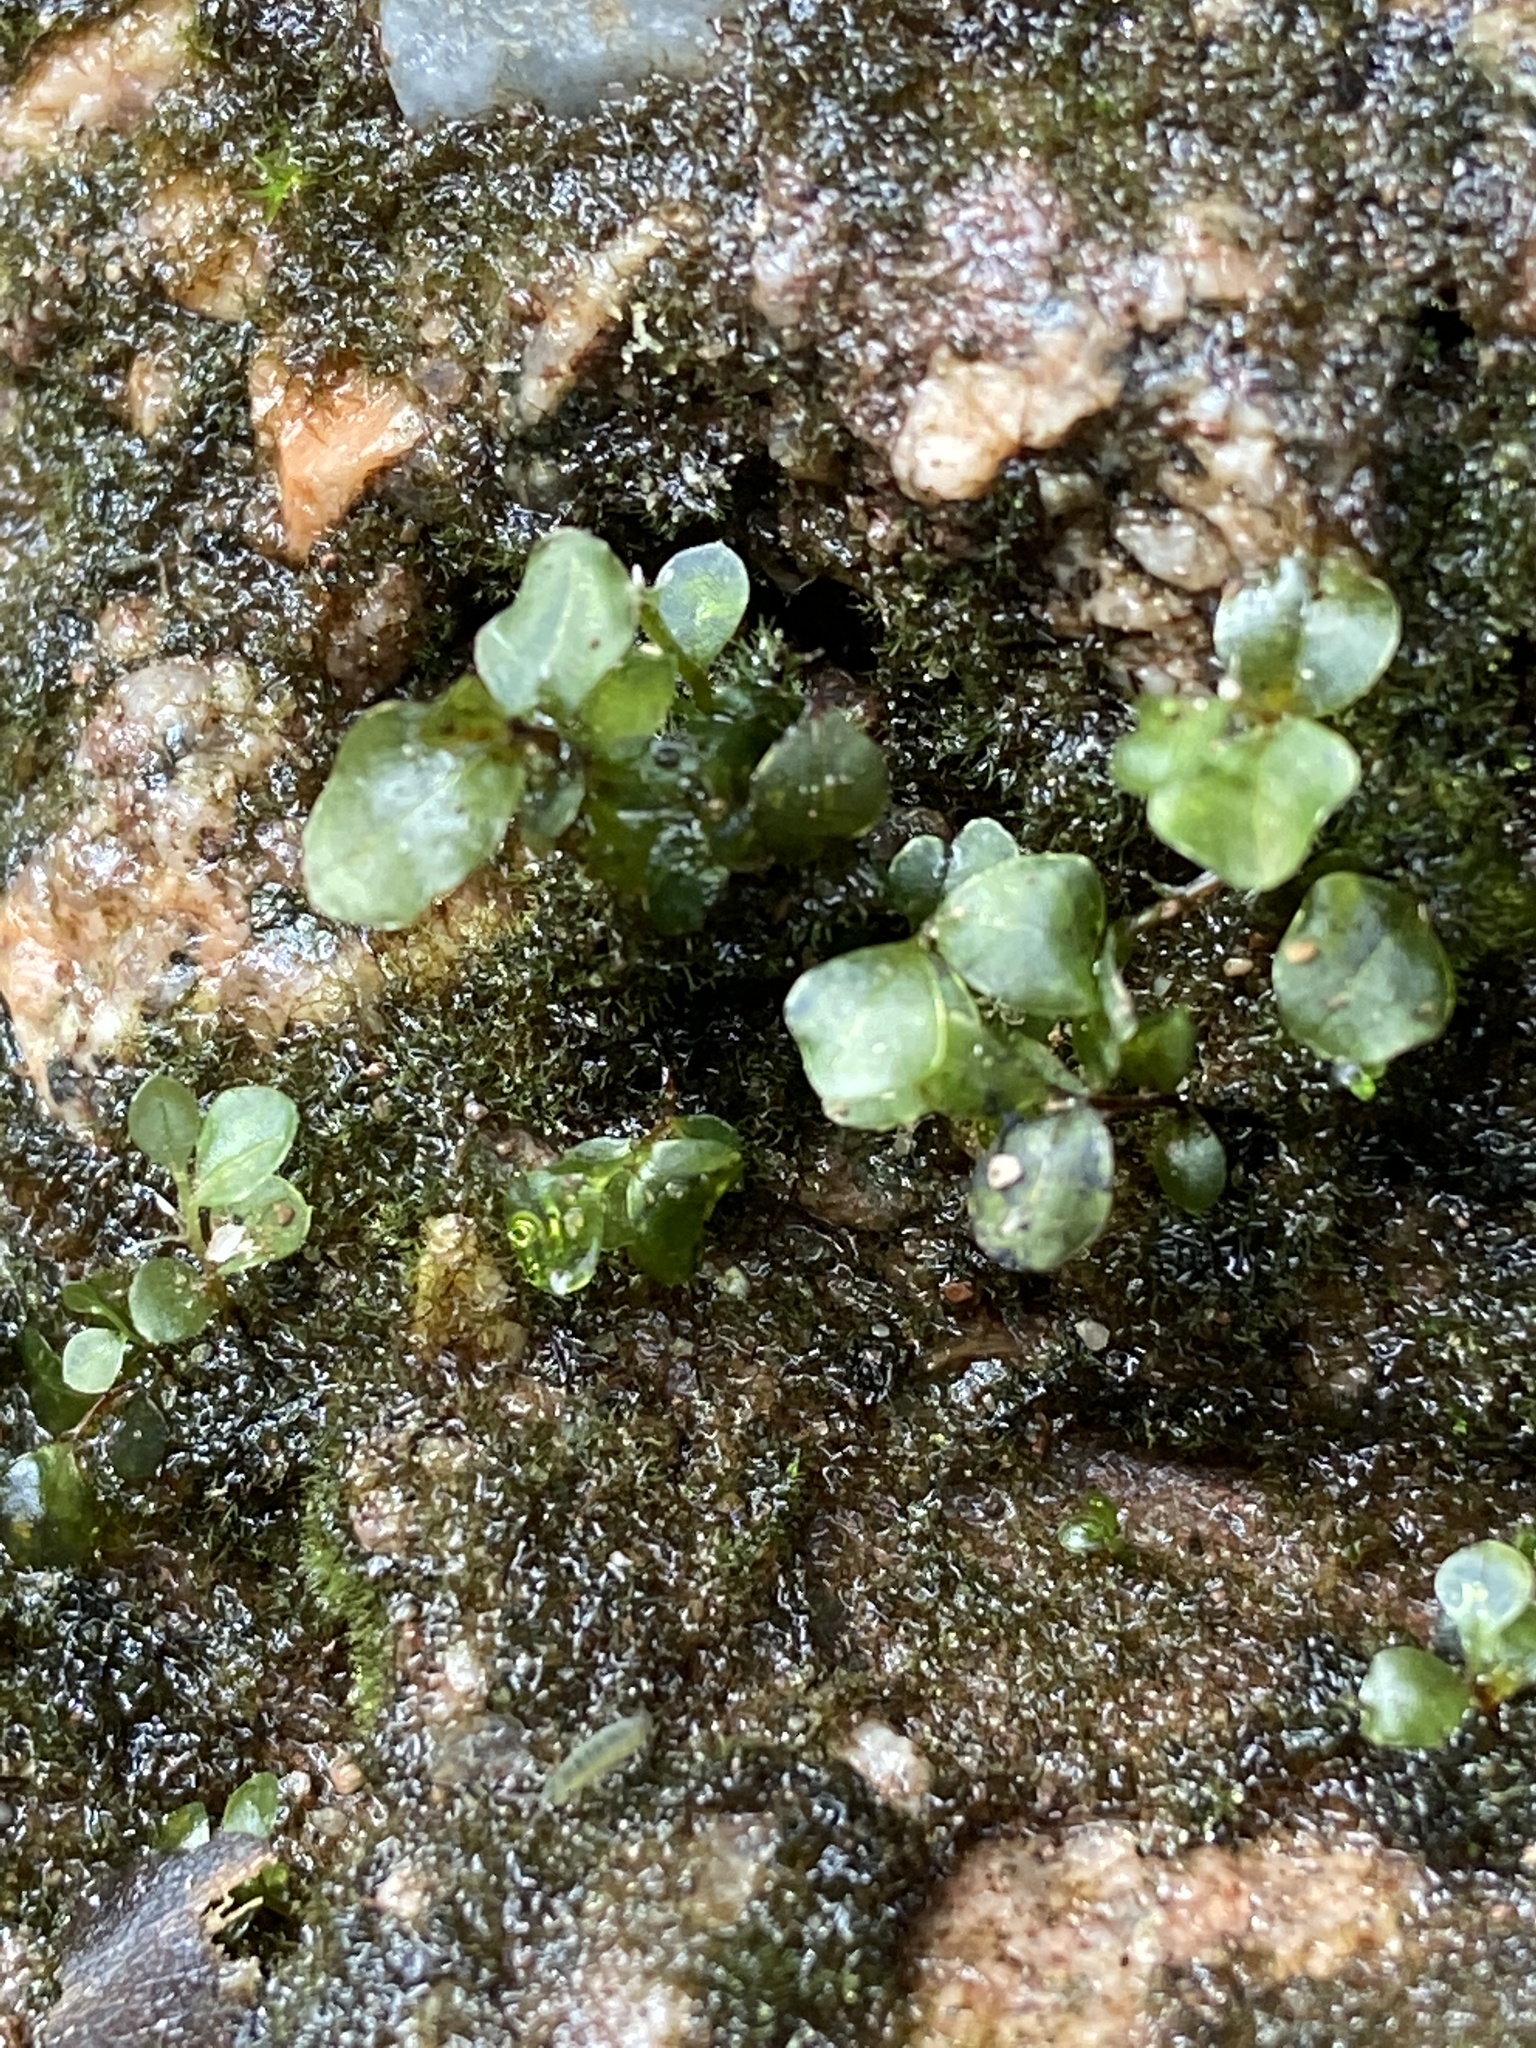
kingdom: Plantae
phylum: Bryophyta
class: Bryopsida
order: Bryales
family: Mniaceae
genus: Rhizomnium
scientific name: Rhizomnium punctatum
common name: Dotted leafy moss
